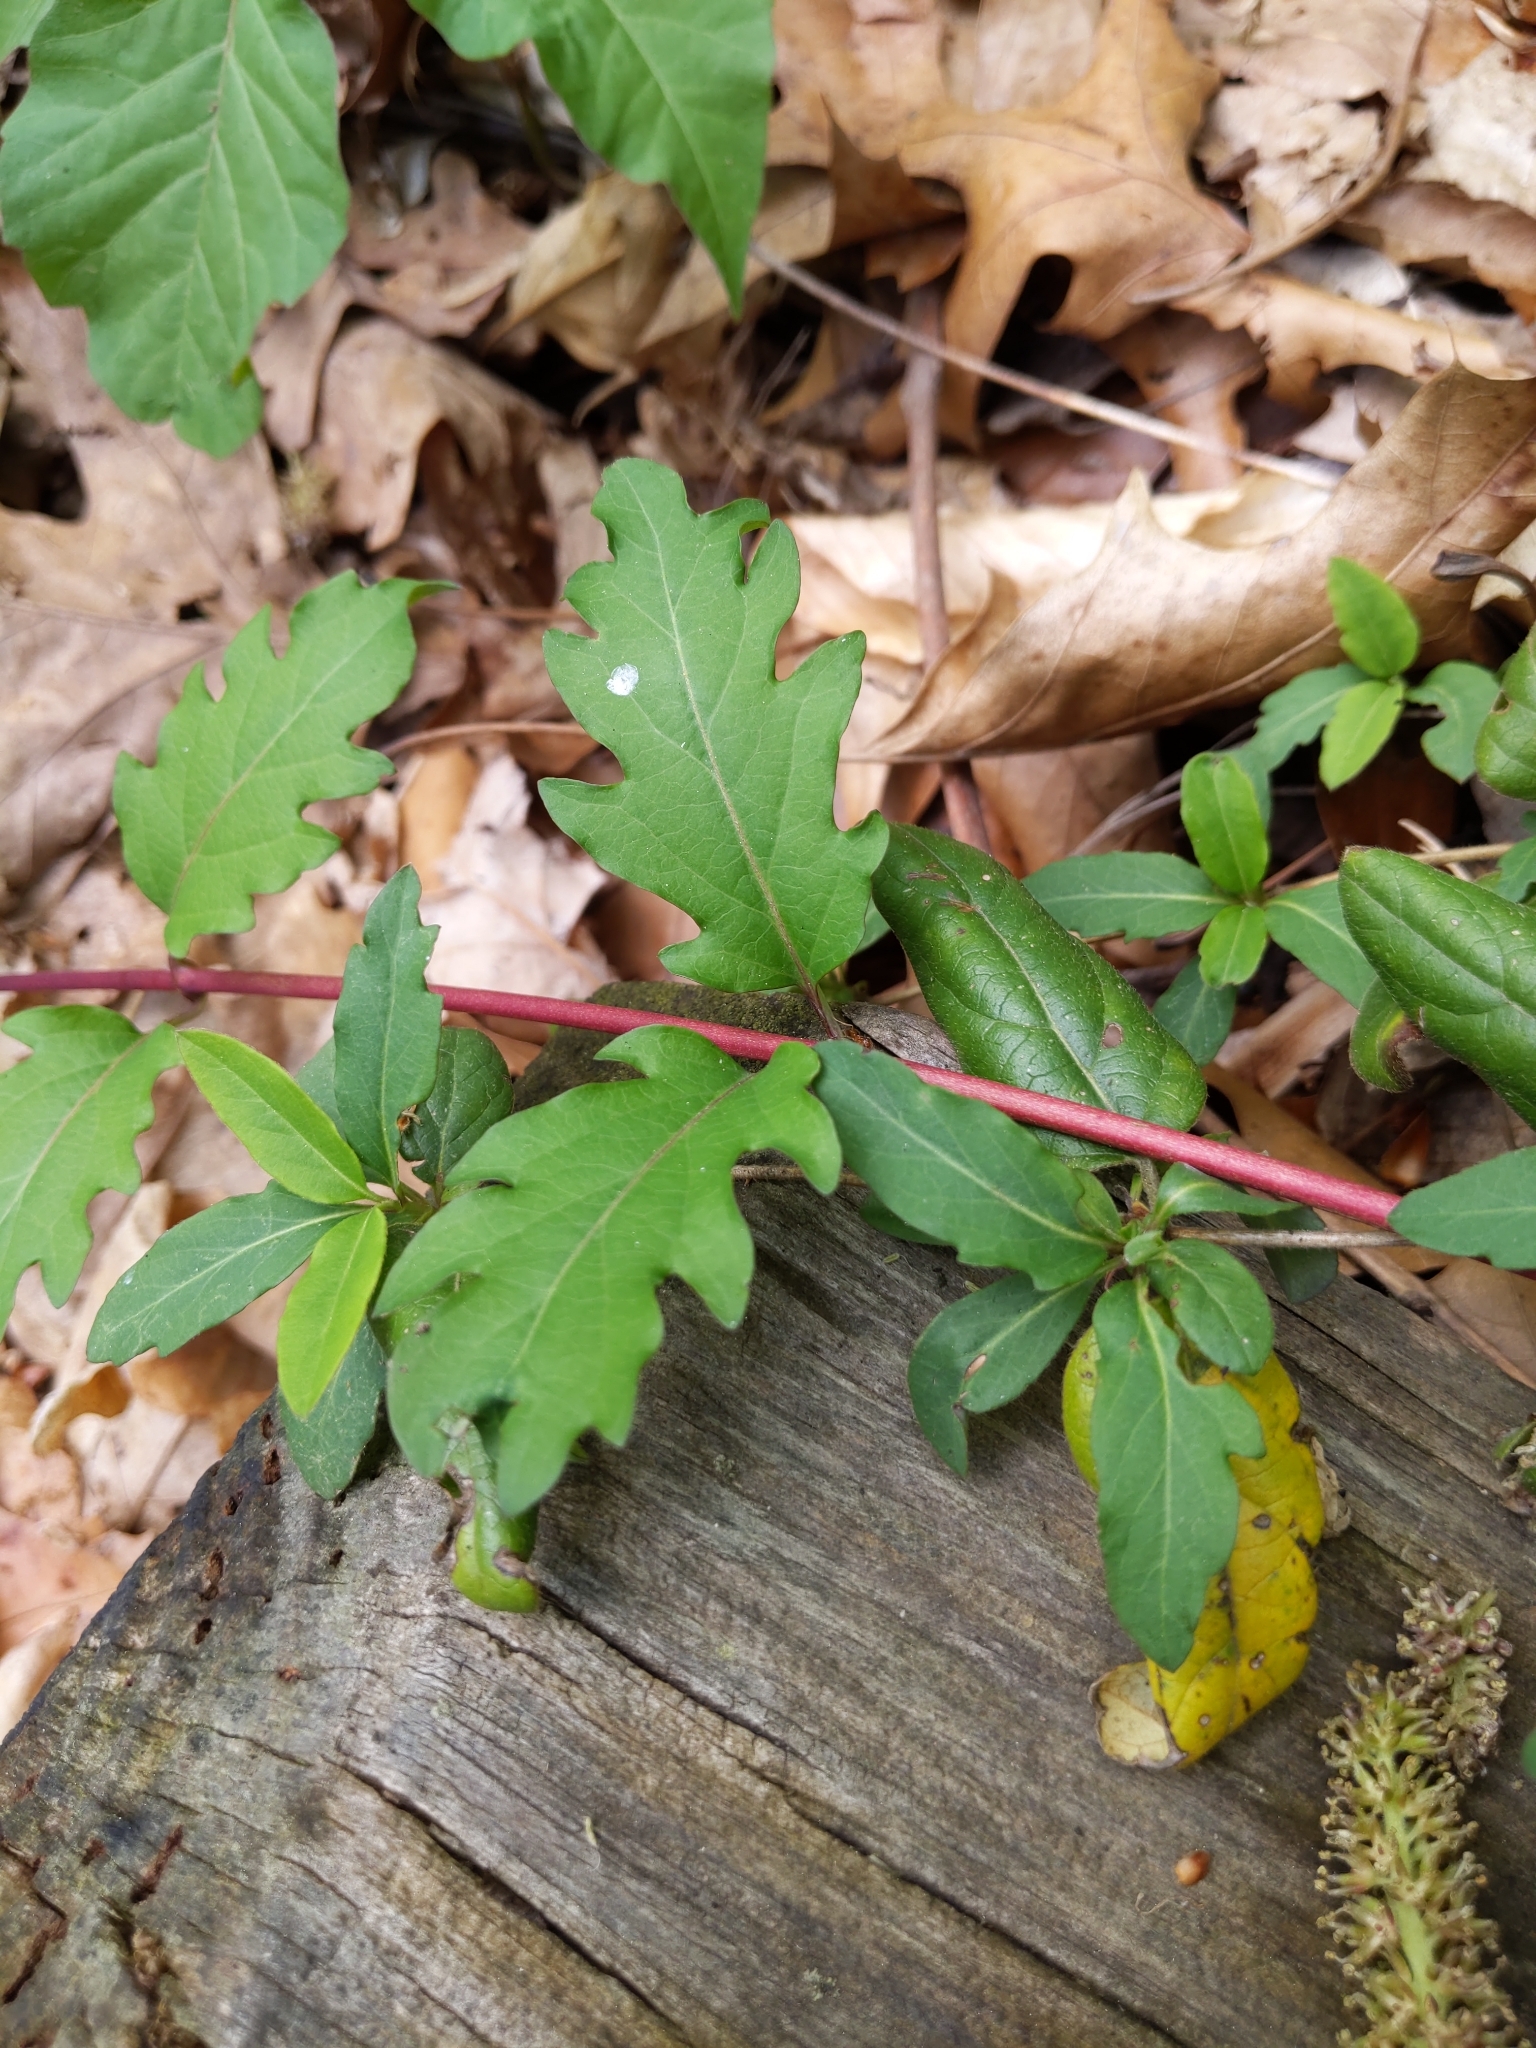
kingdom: Plantae
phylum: Tracheophyta
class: Magnoliopsida
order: Dipsacales
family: Caprifoliaceae
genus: Lonicera
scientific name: Lonicera japonica
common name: Japanese honeysuckle
